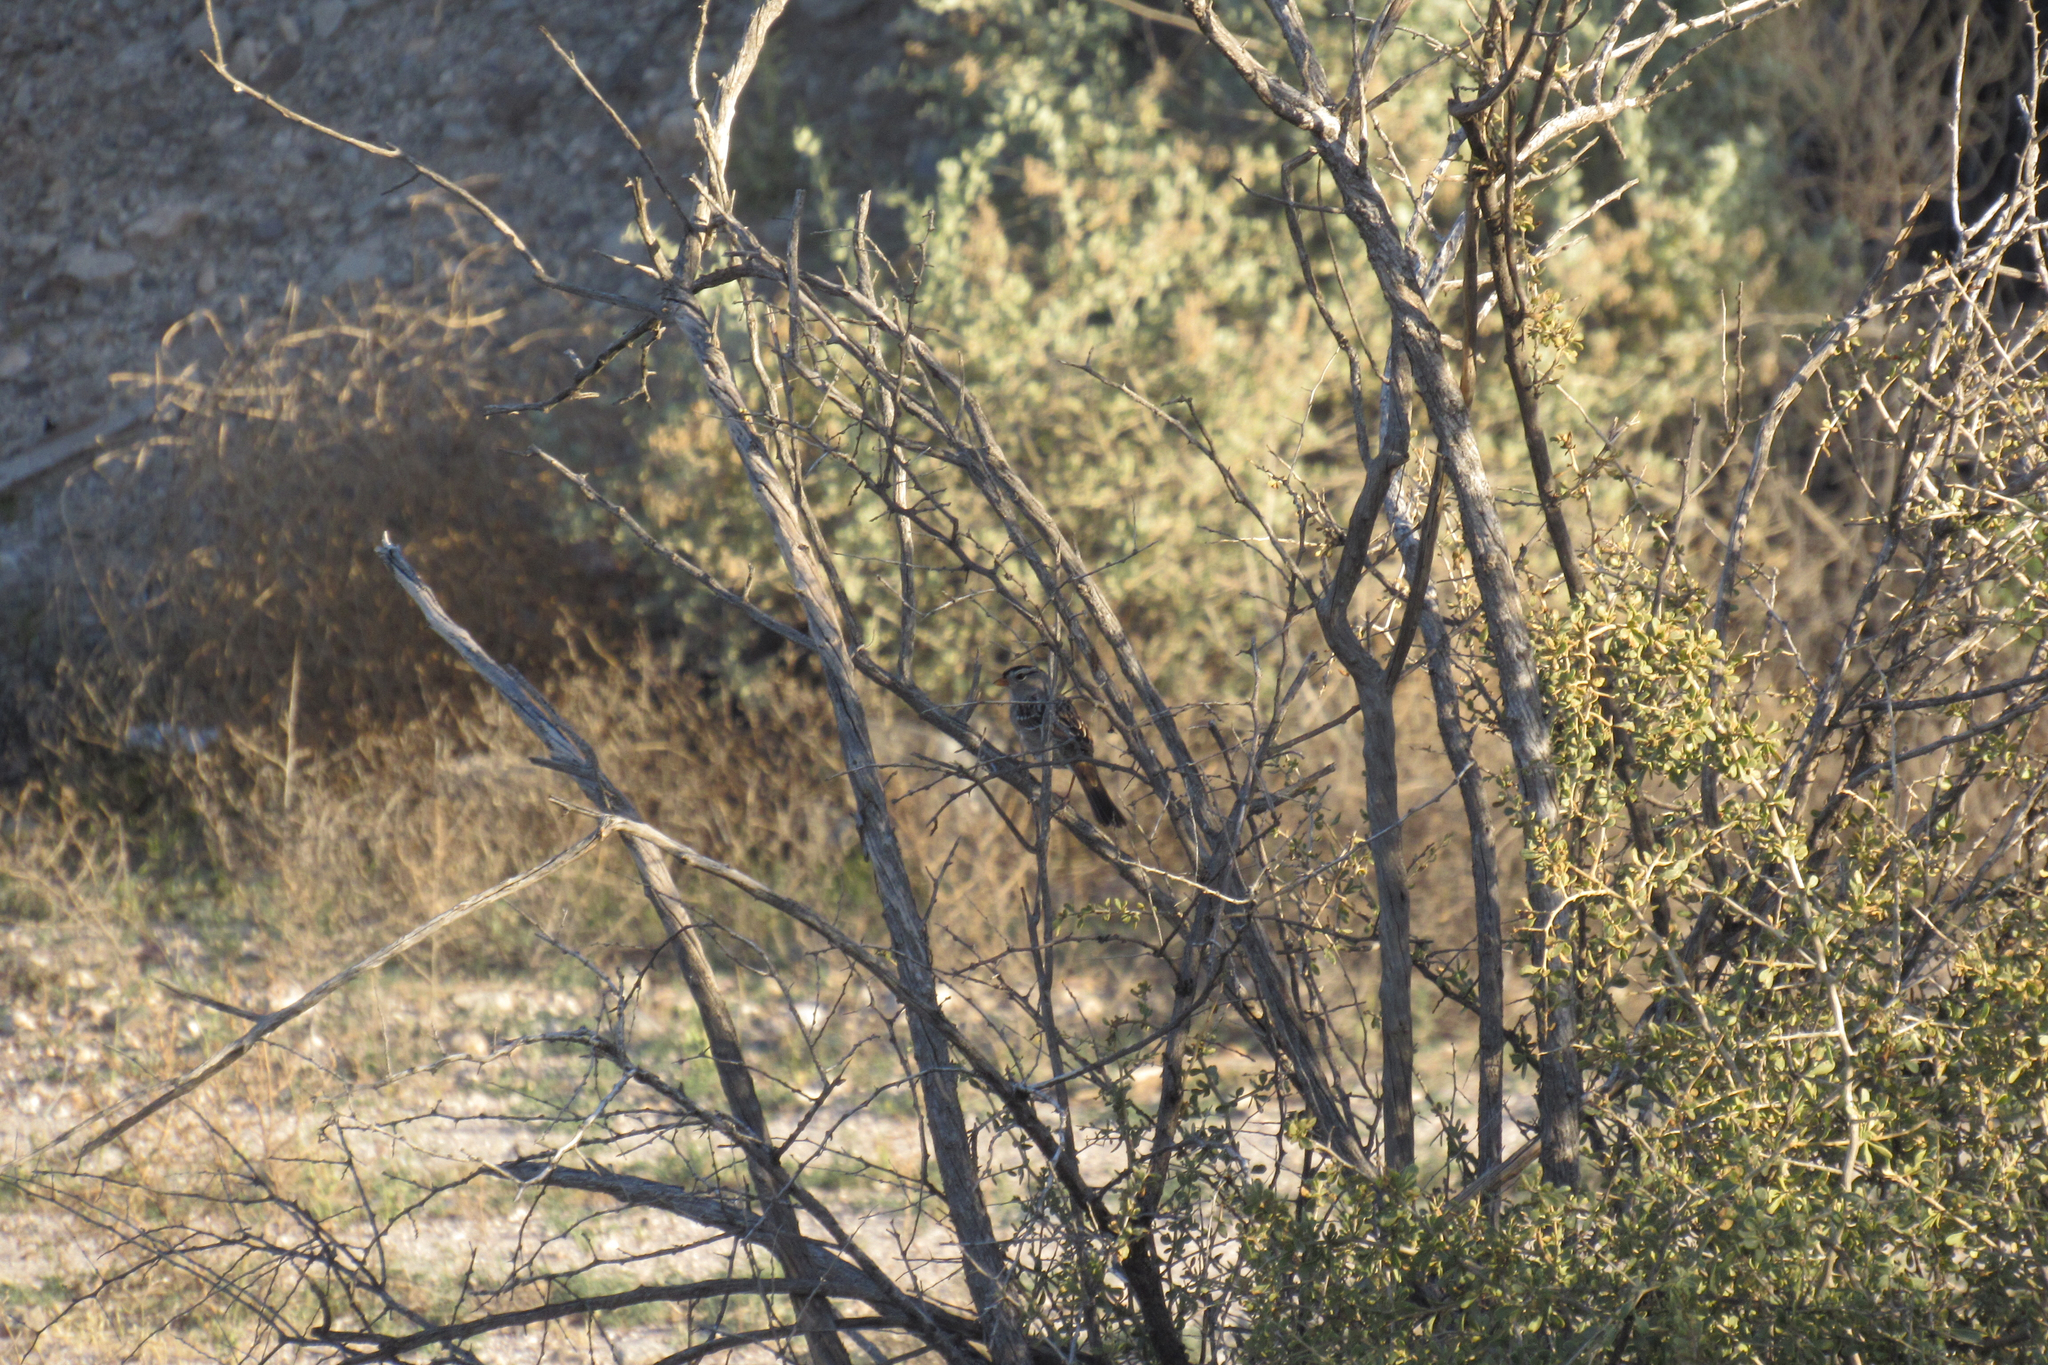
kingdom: Animalia
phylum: Chordata
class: Aves
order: Passeriformes
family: Passerellidae
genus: Zonotrichia
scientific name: Zonotrichia leucophrys
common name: White-crowned sparrow
